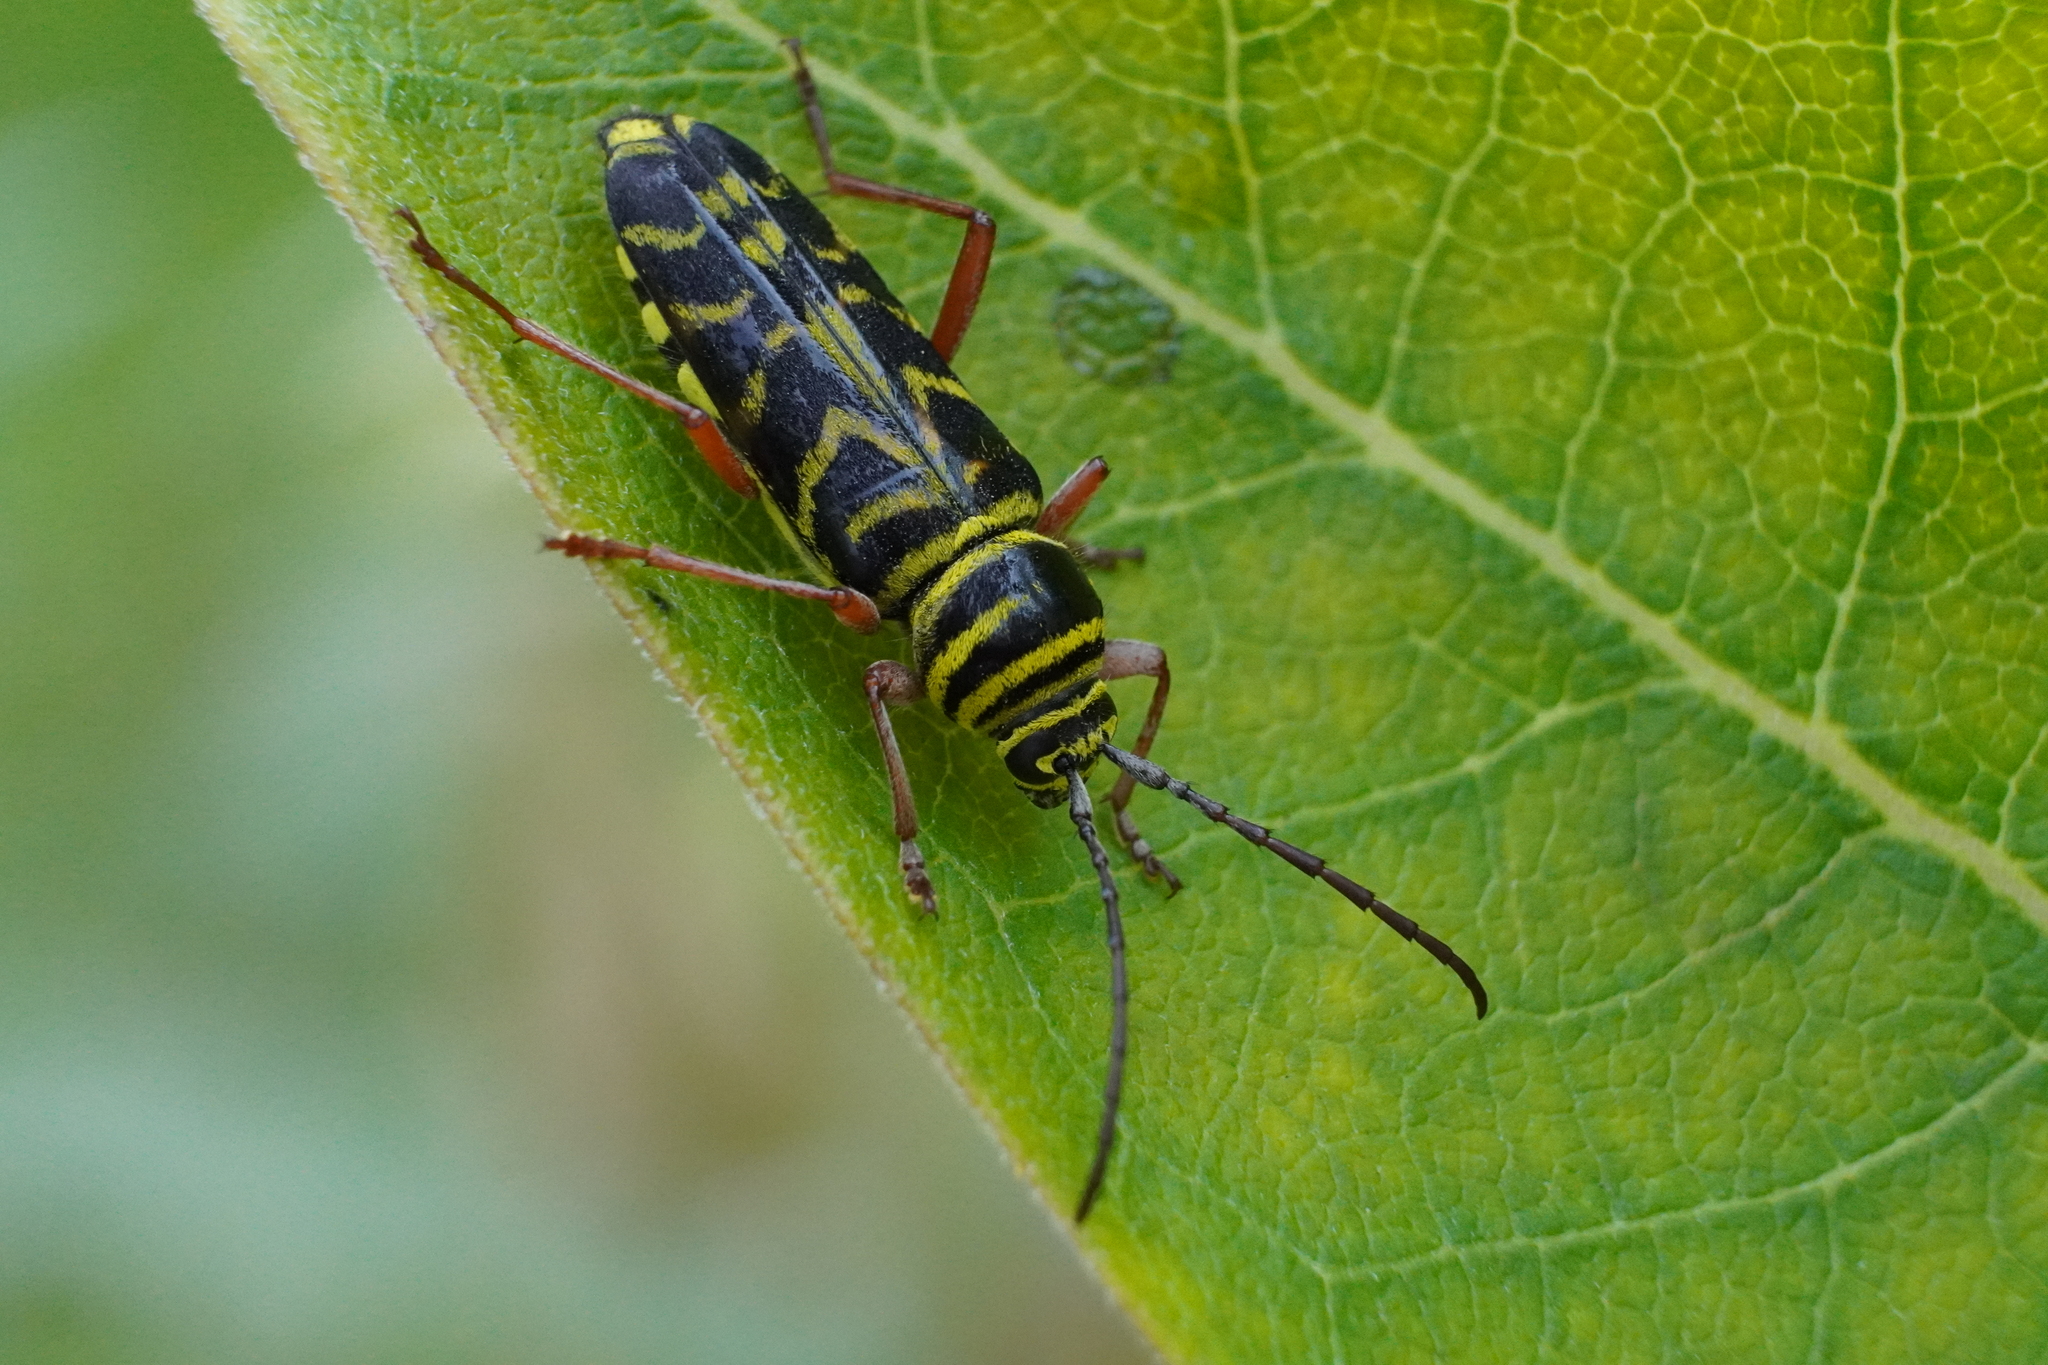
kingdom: Animalia
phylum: Arthropoda
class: Insecta
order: Coleoptera
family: Cerambycidae
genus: Megacyllene
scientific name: Megacyllene robiniae
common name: Locust borer
